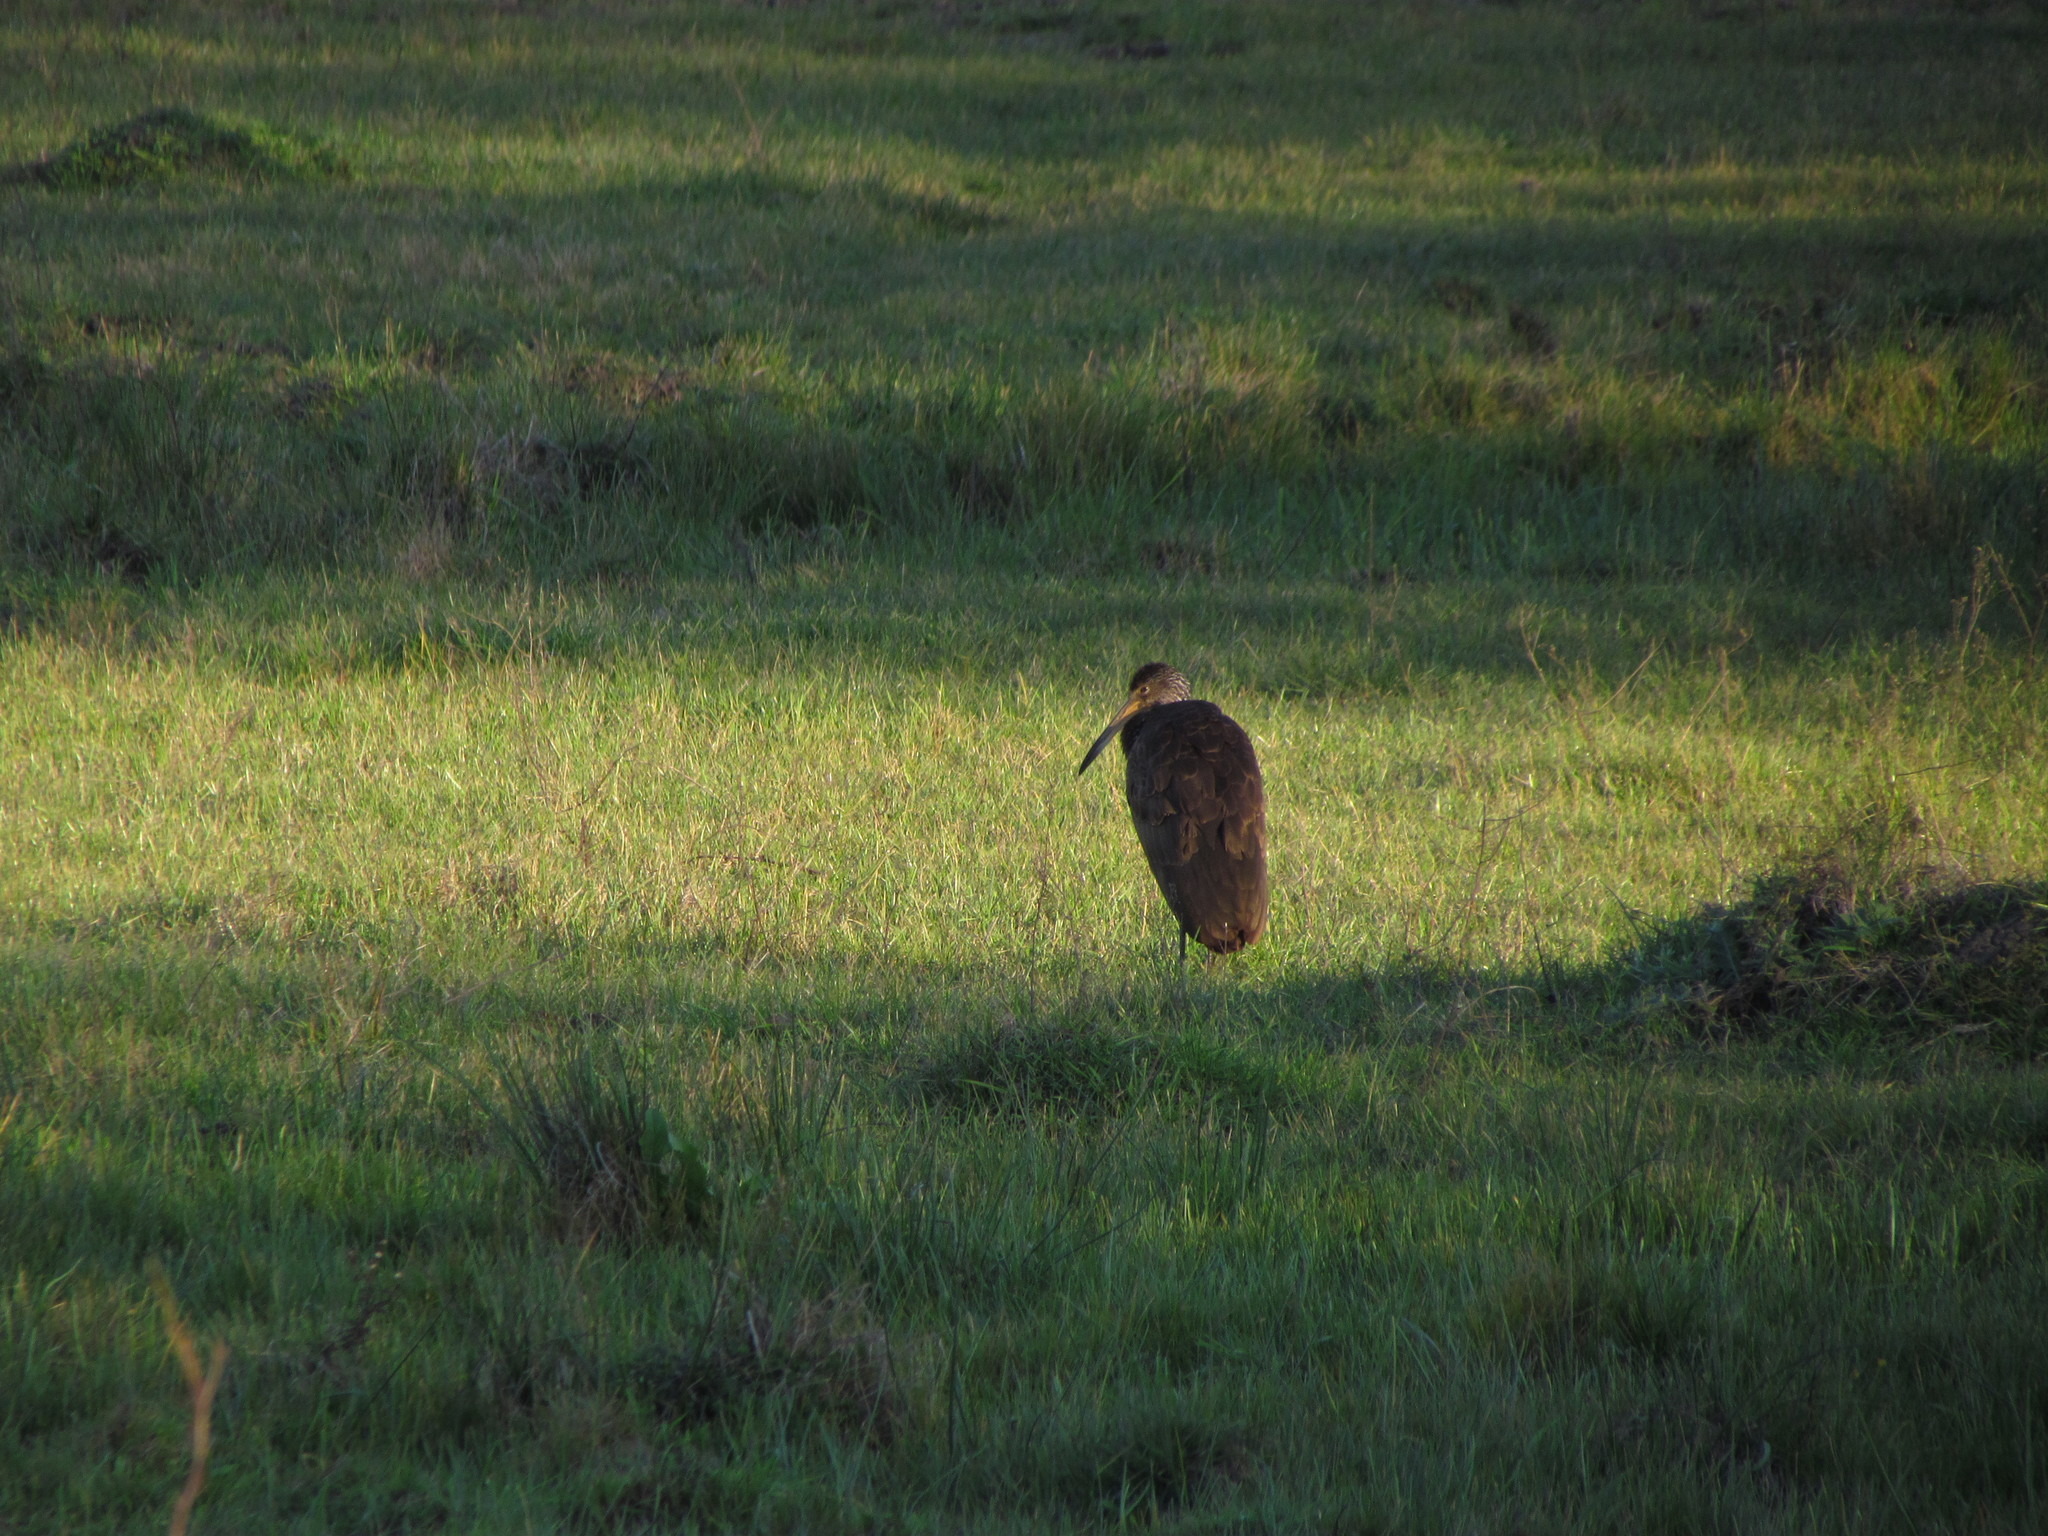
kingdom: Animalia
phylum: Chordata
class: Aves
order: Gruiformes
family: Aramidae
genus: Aramus
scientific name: Aramus guarauna
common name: Limpkin
